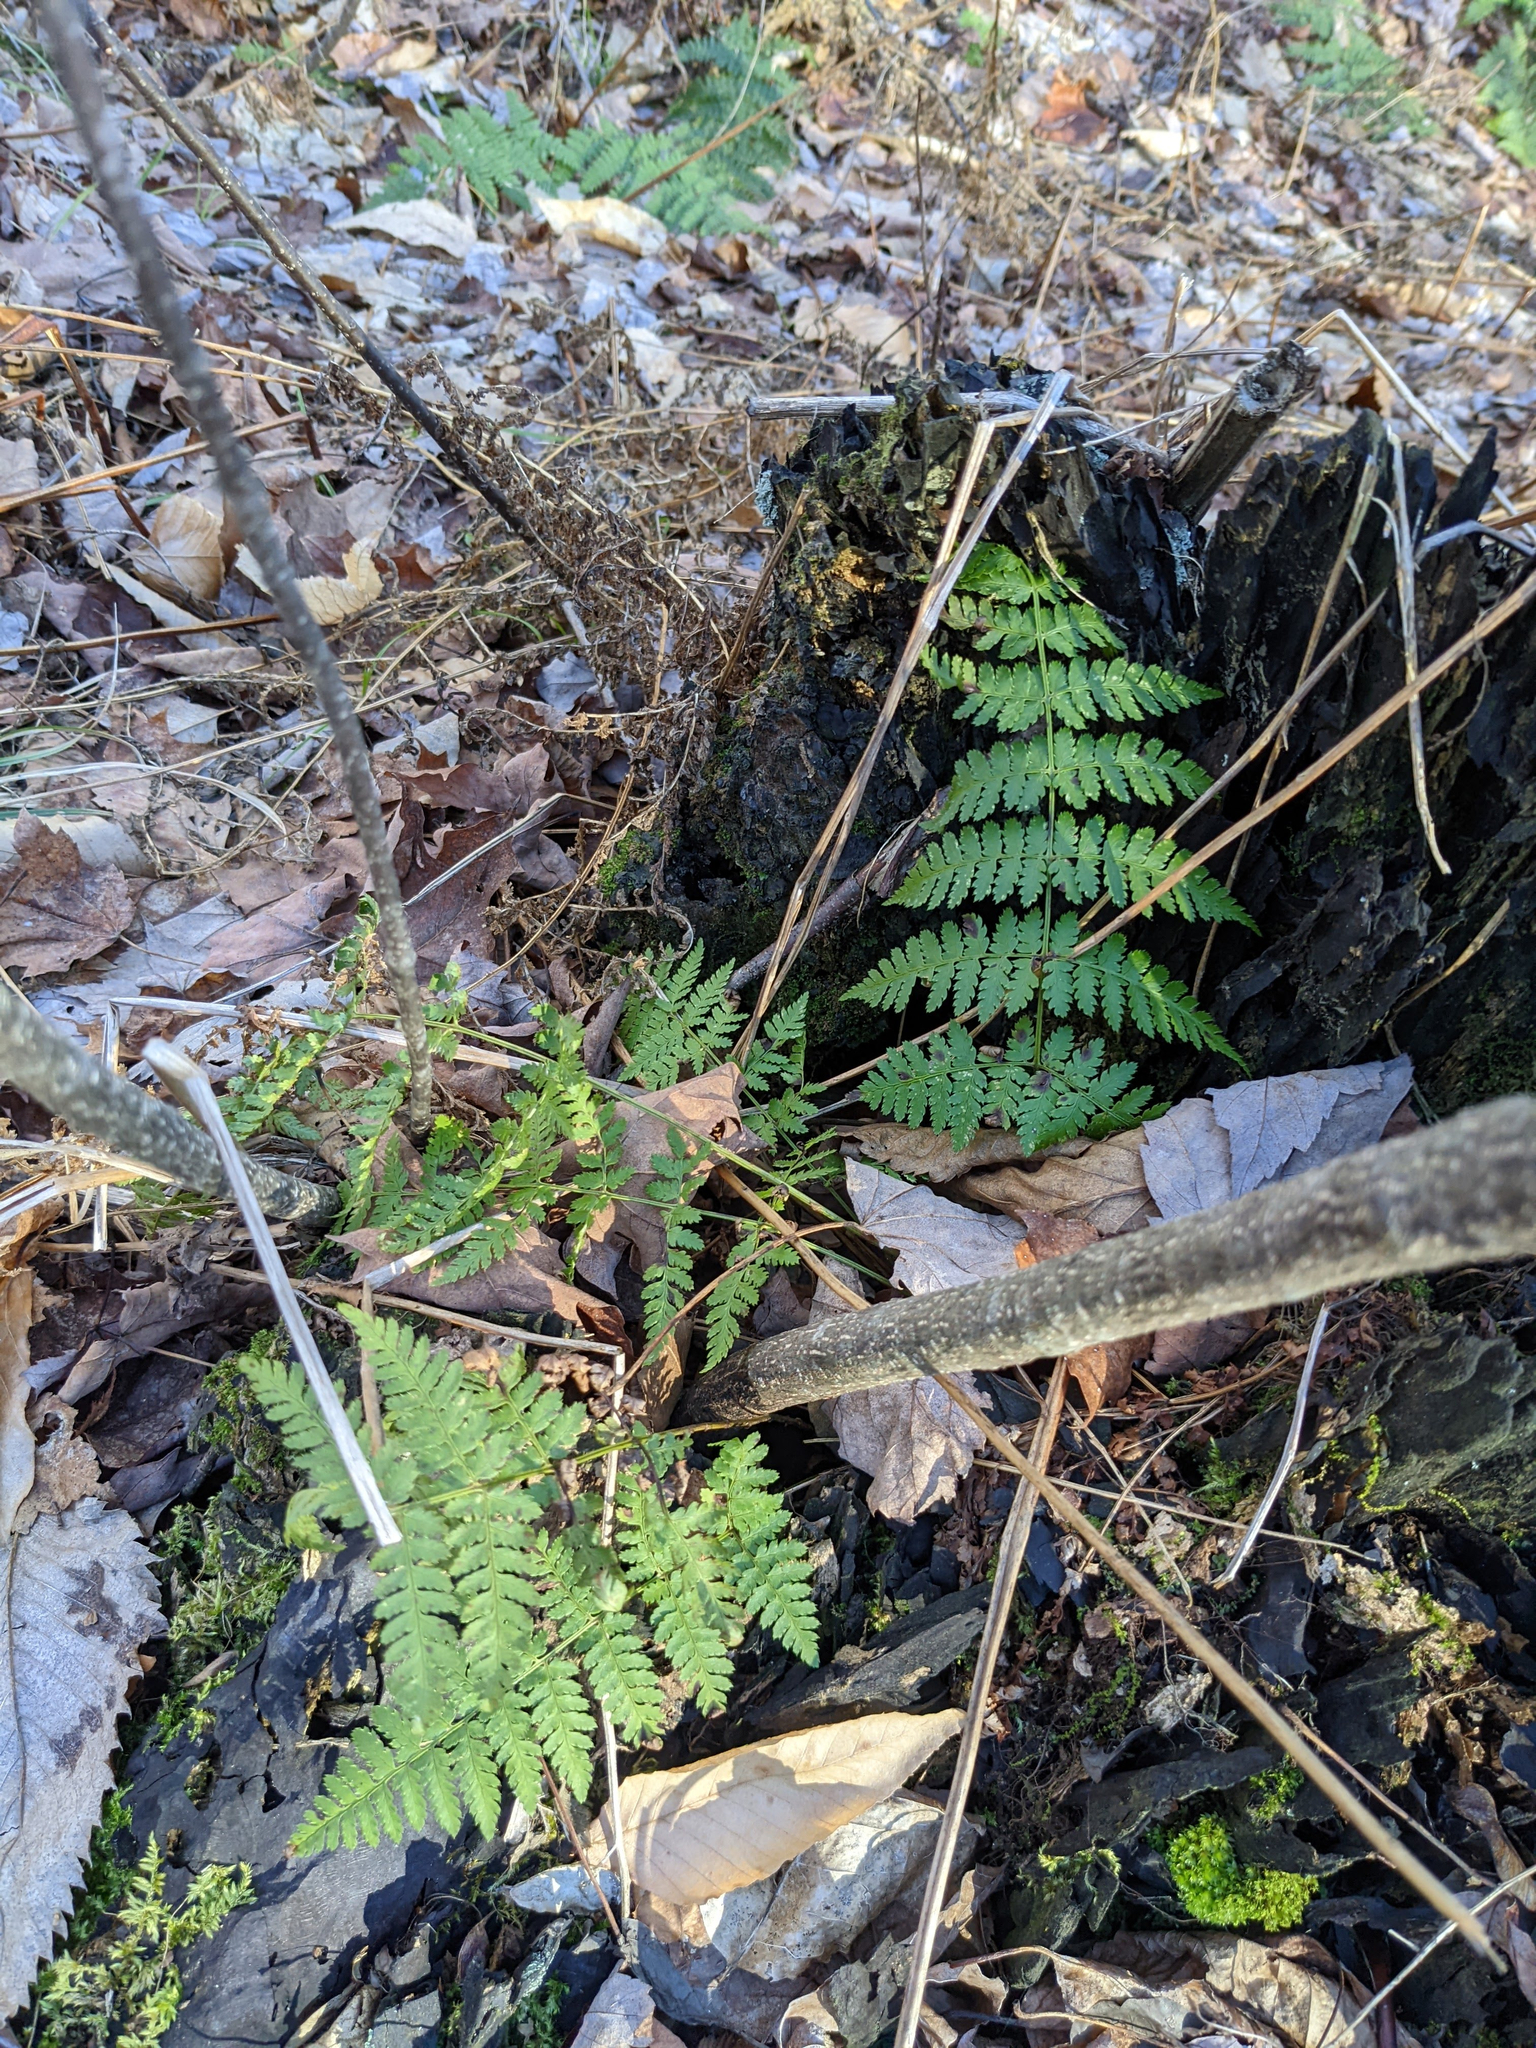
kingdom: Plantae
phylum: Tracheophyta
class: Polypodiopsida
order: Polypodiales
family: Dryopteridaceae
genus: Dryopteris
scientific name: Dryopteris intermedia
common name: Evergreen wood fern
